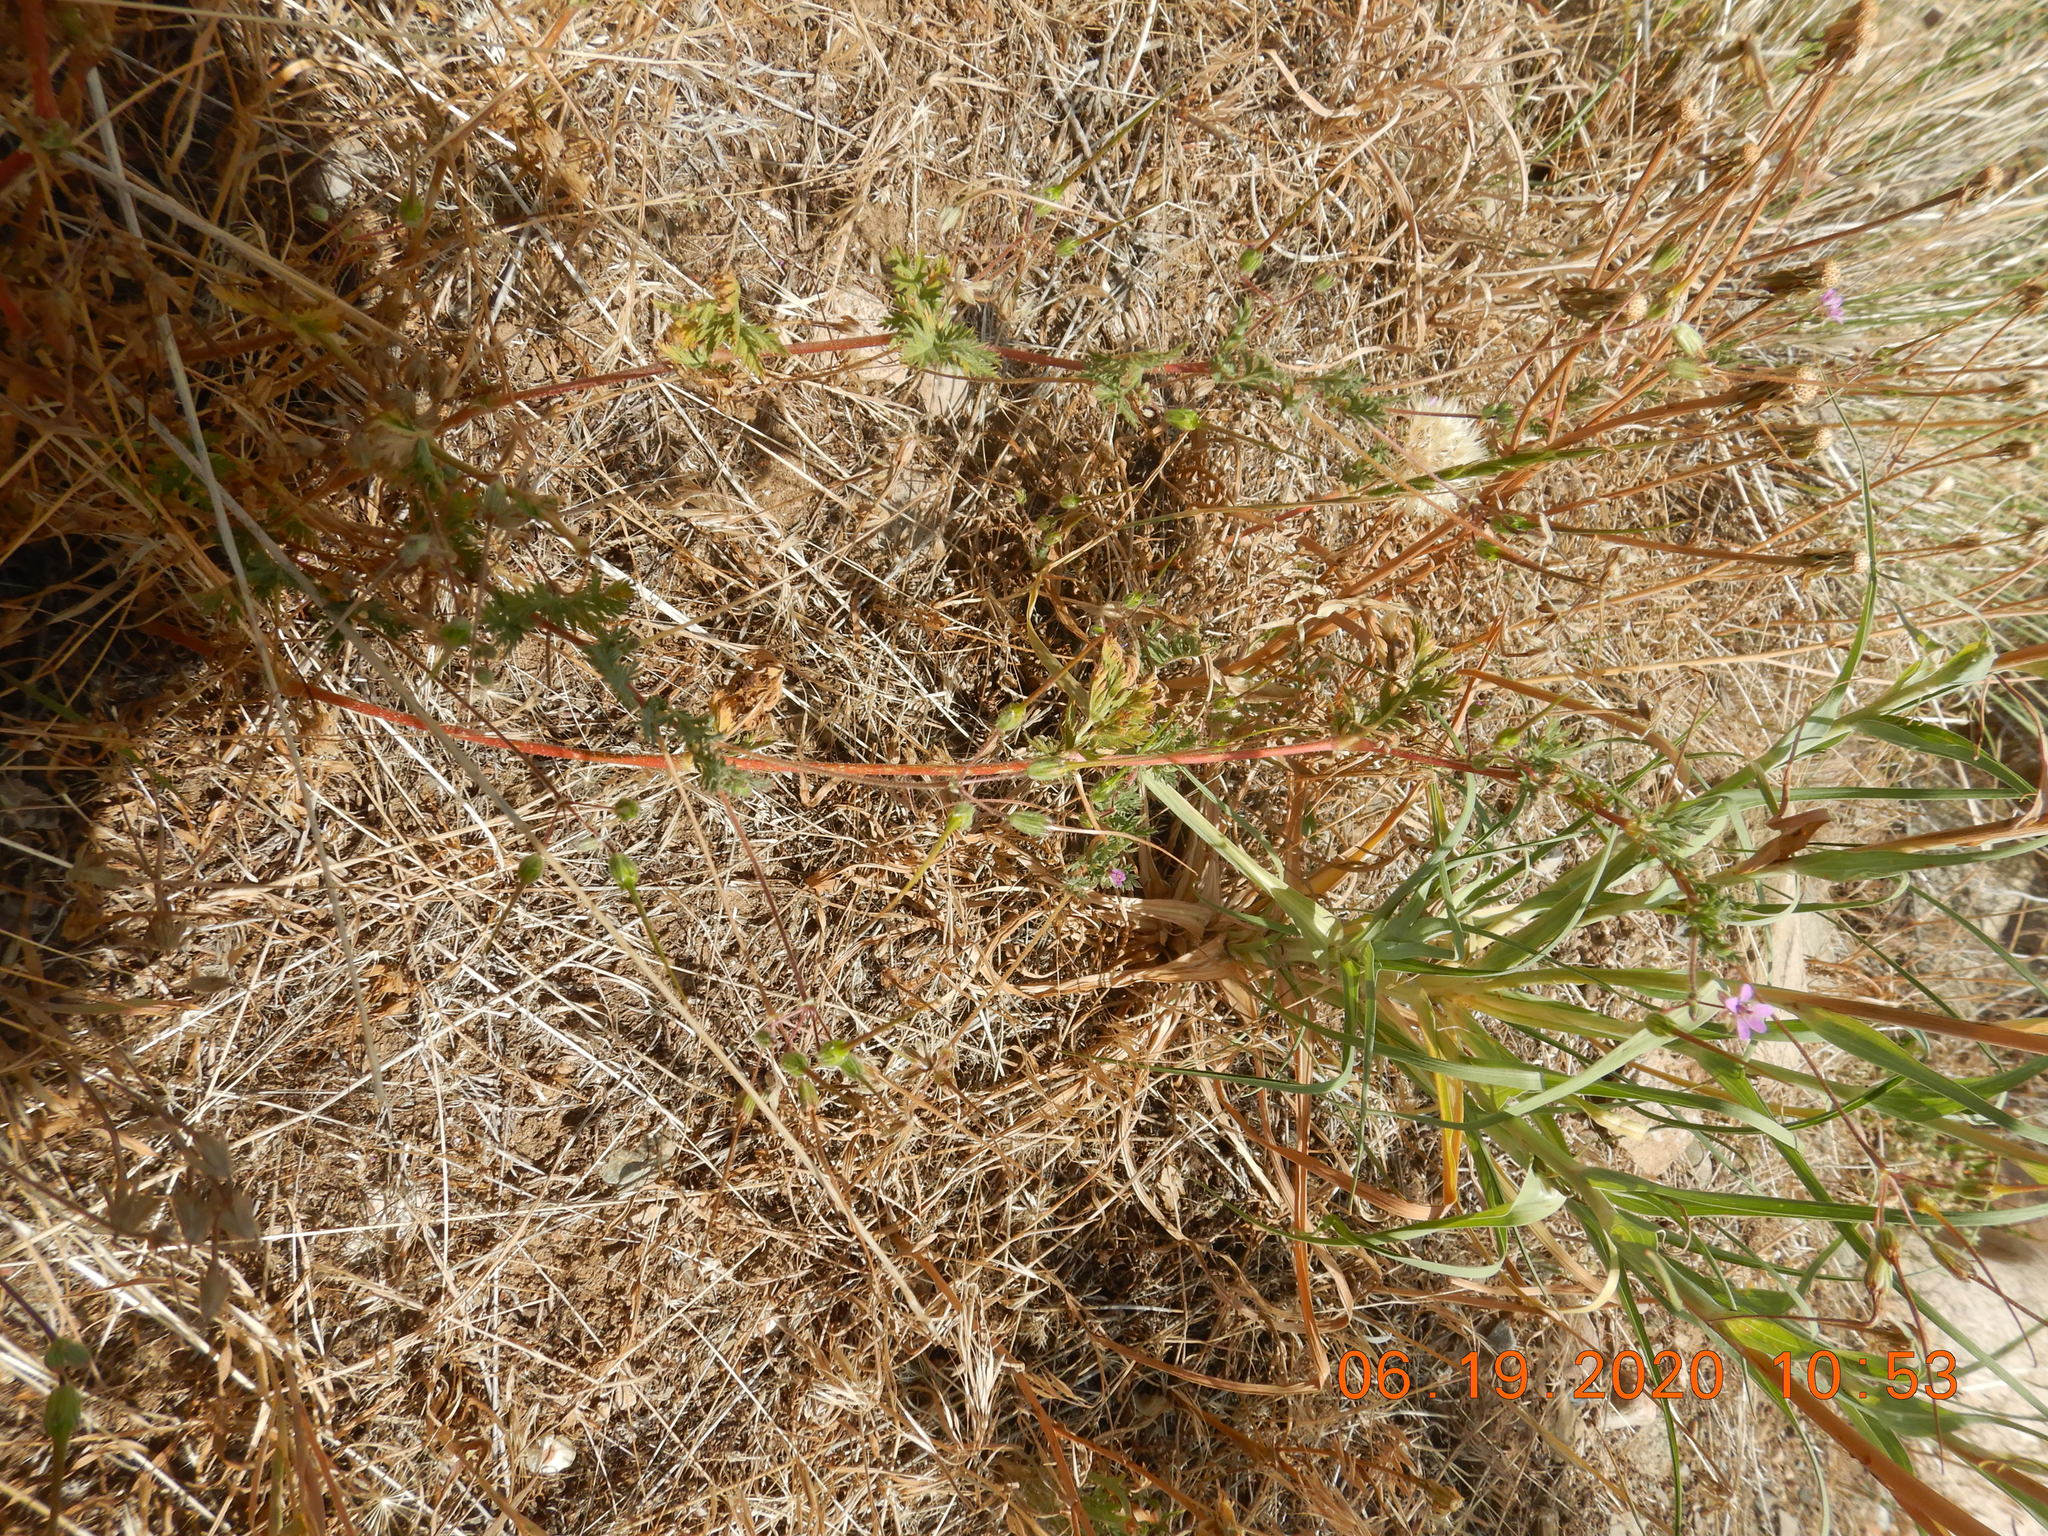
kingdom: Plantae
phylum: Tracheophyta
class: Magnoliopsida
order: Geraniales
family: Geraniaceae
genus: Erodium
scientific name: Erodium cicutarium
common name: Common stork's-bill
